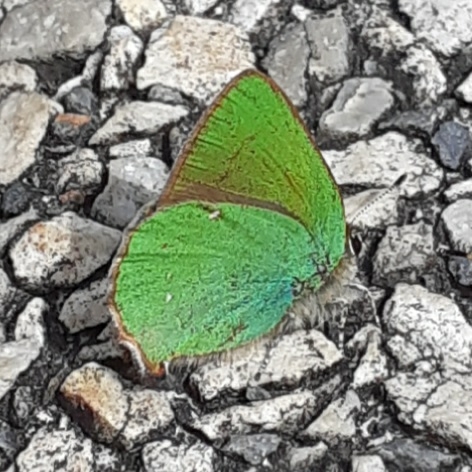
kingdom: Animalia
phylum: Arthropoda
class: Insecta
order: Lepidoptera
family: Lycaenidae
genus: Callophrys
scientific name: Callophrys rubi
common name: Green hairstreak
